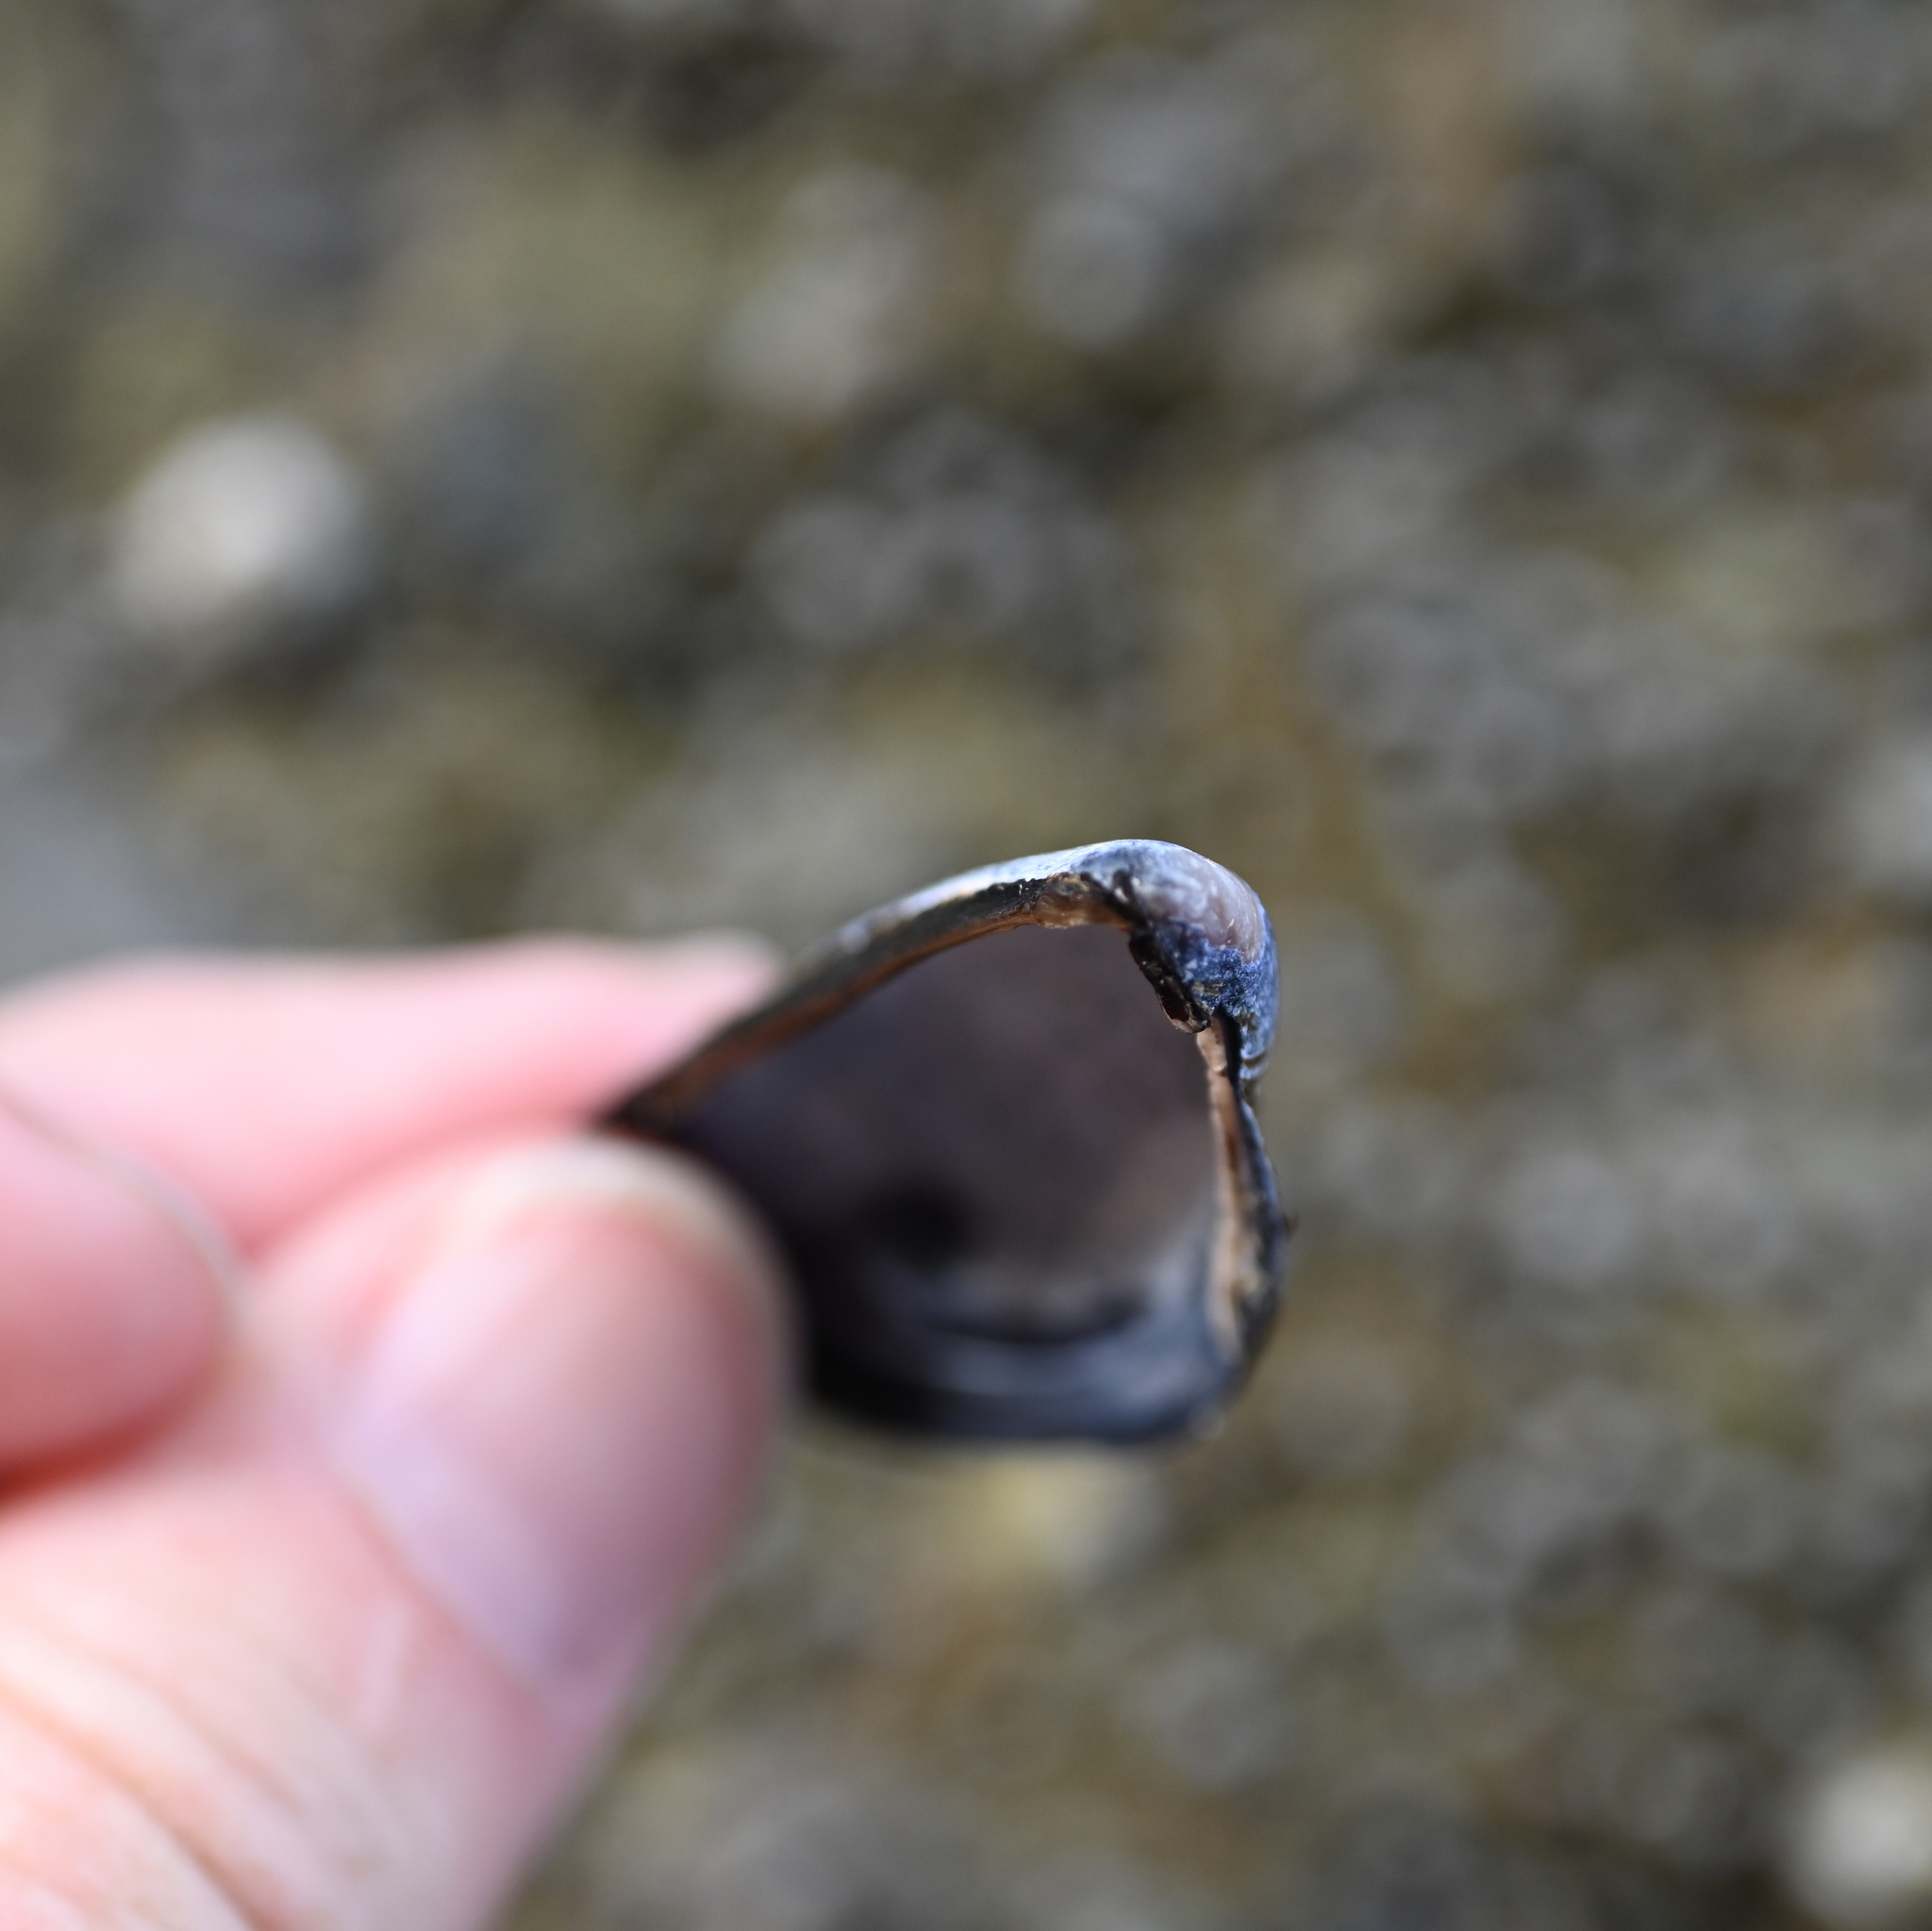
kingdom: Animalia
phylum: Mollusca
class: Bivalvia
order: Mytilida
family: Mytilidae
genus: Mytilus
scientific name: Mytilus trossulus
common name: Northern blue mussel
